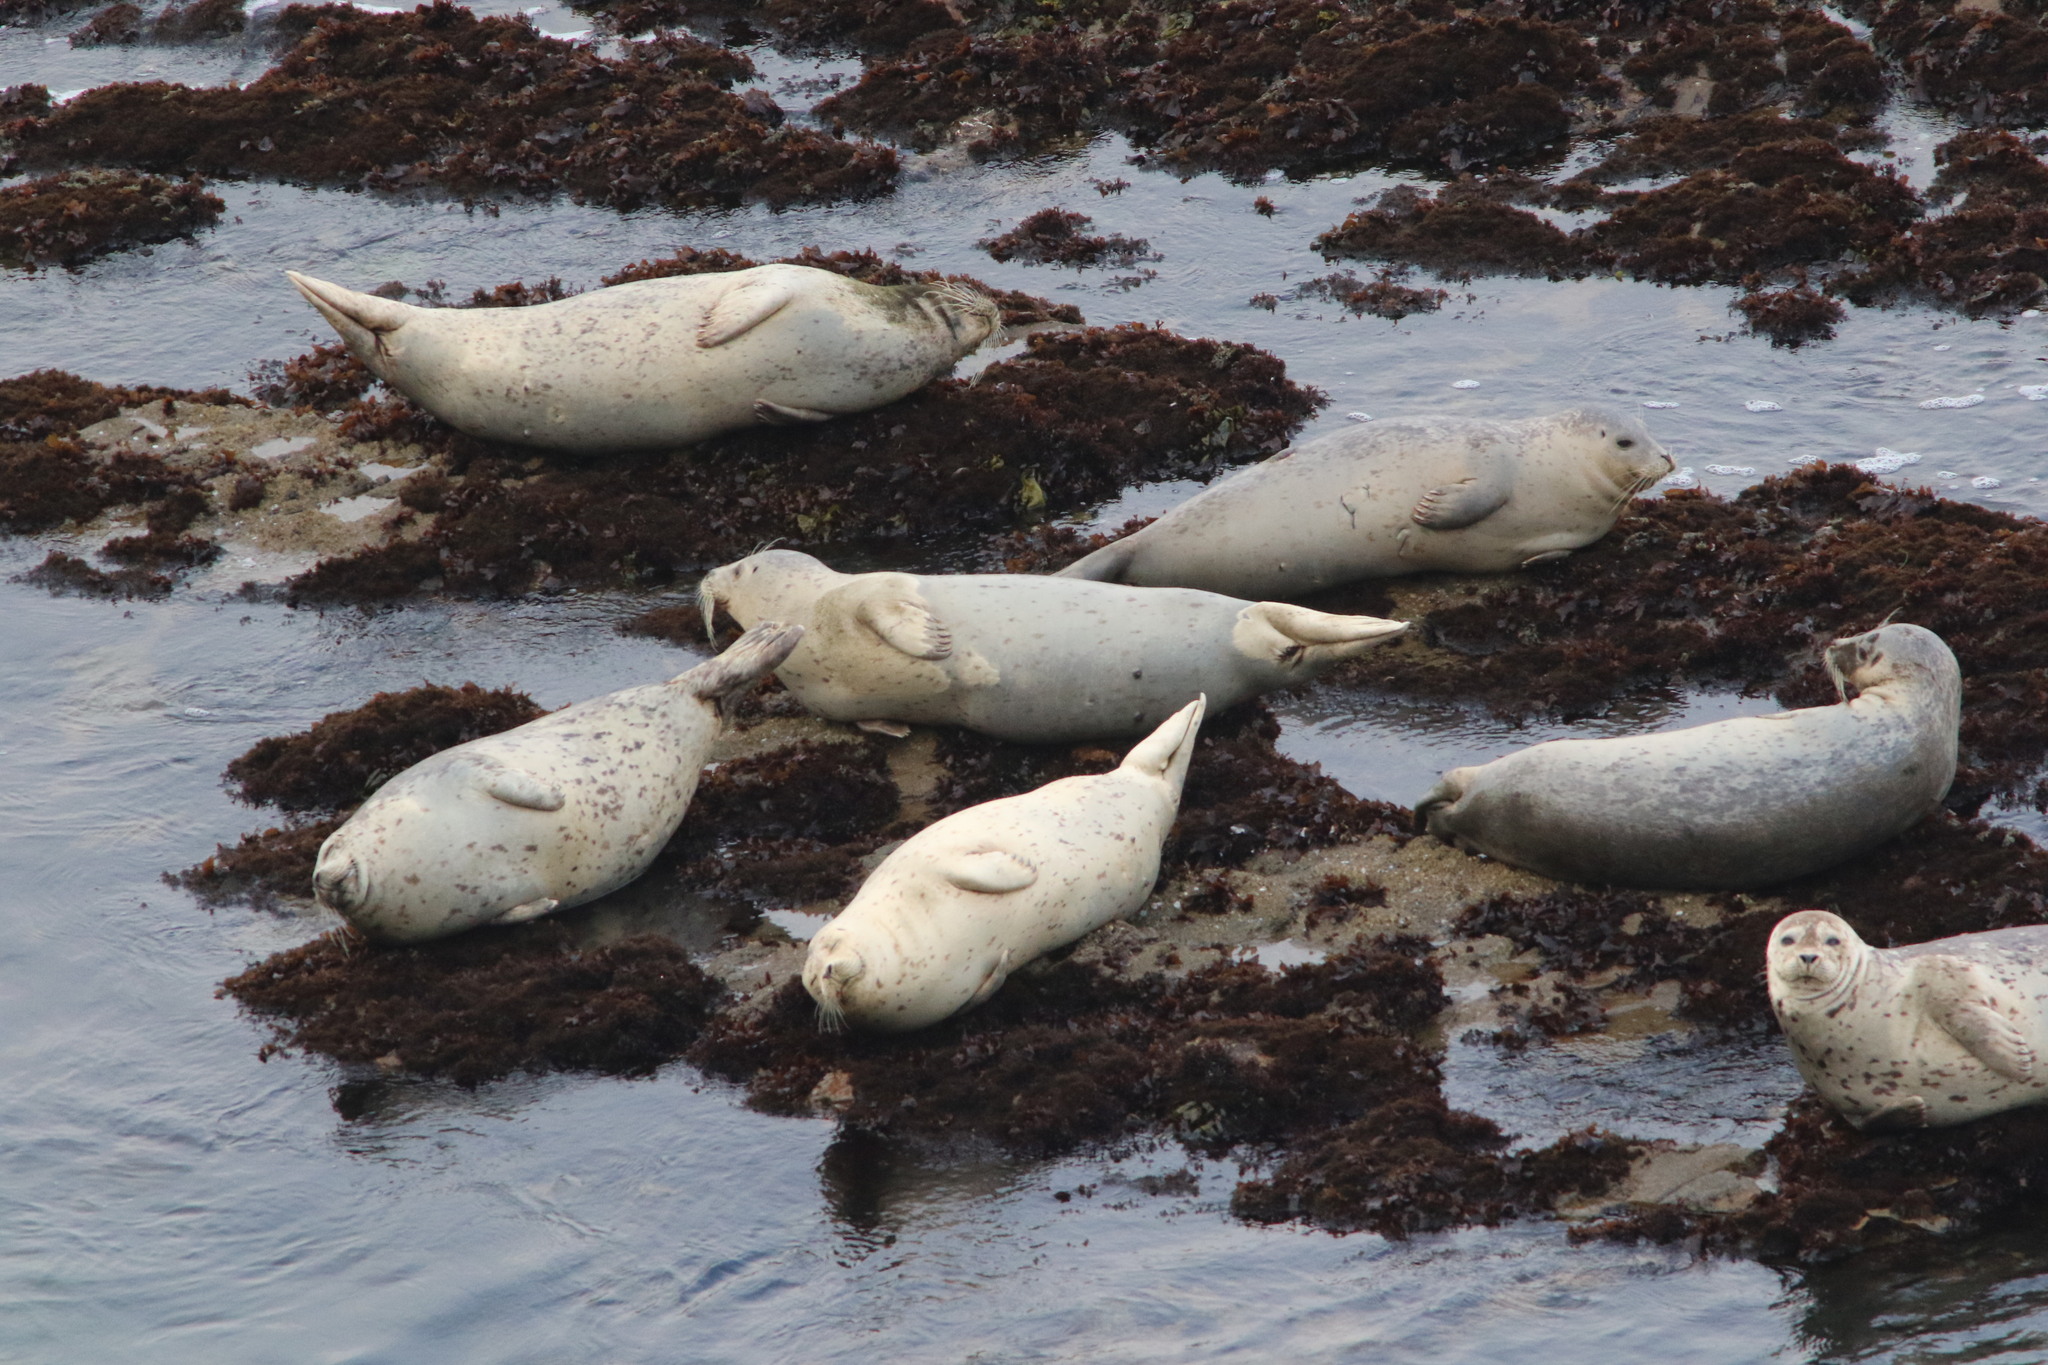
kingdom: Animalia
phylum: Chordata
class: Mammalia
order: Carnivora
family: Phocidae
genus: Phoca
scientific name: Phoca vitulina
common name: Harbor seal
